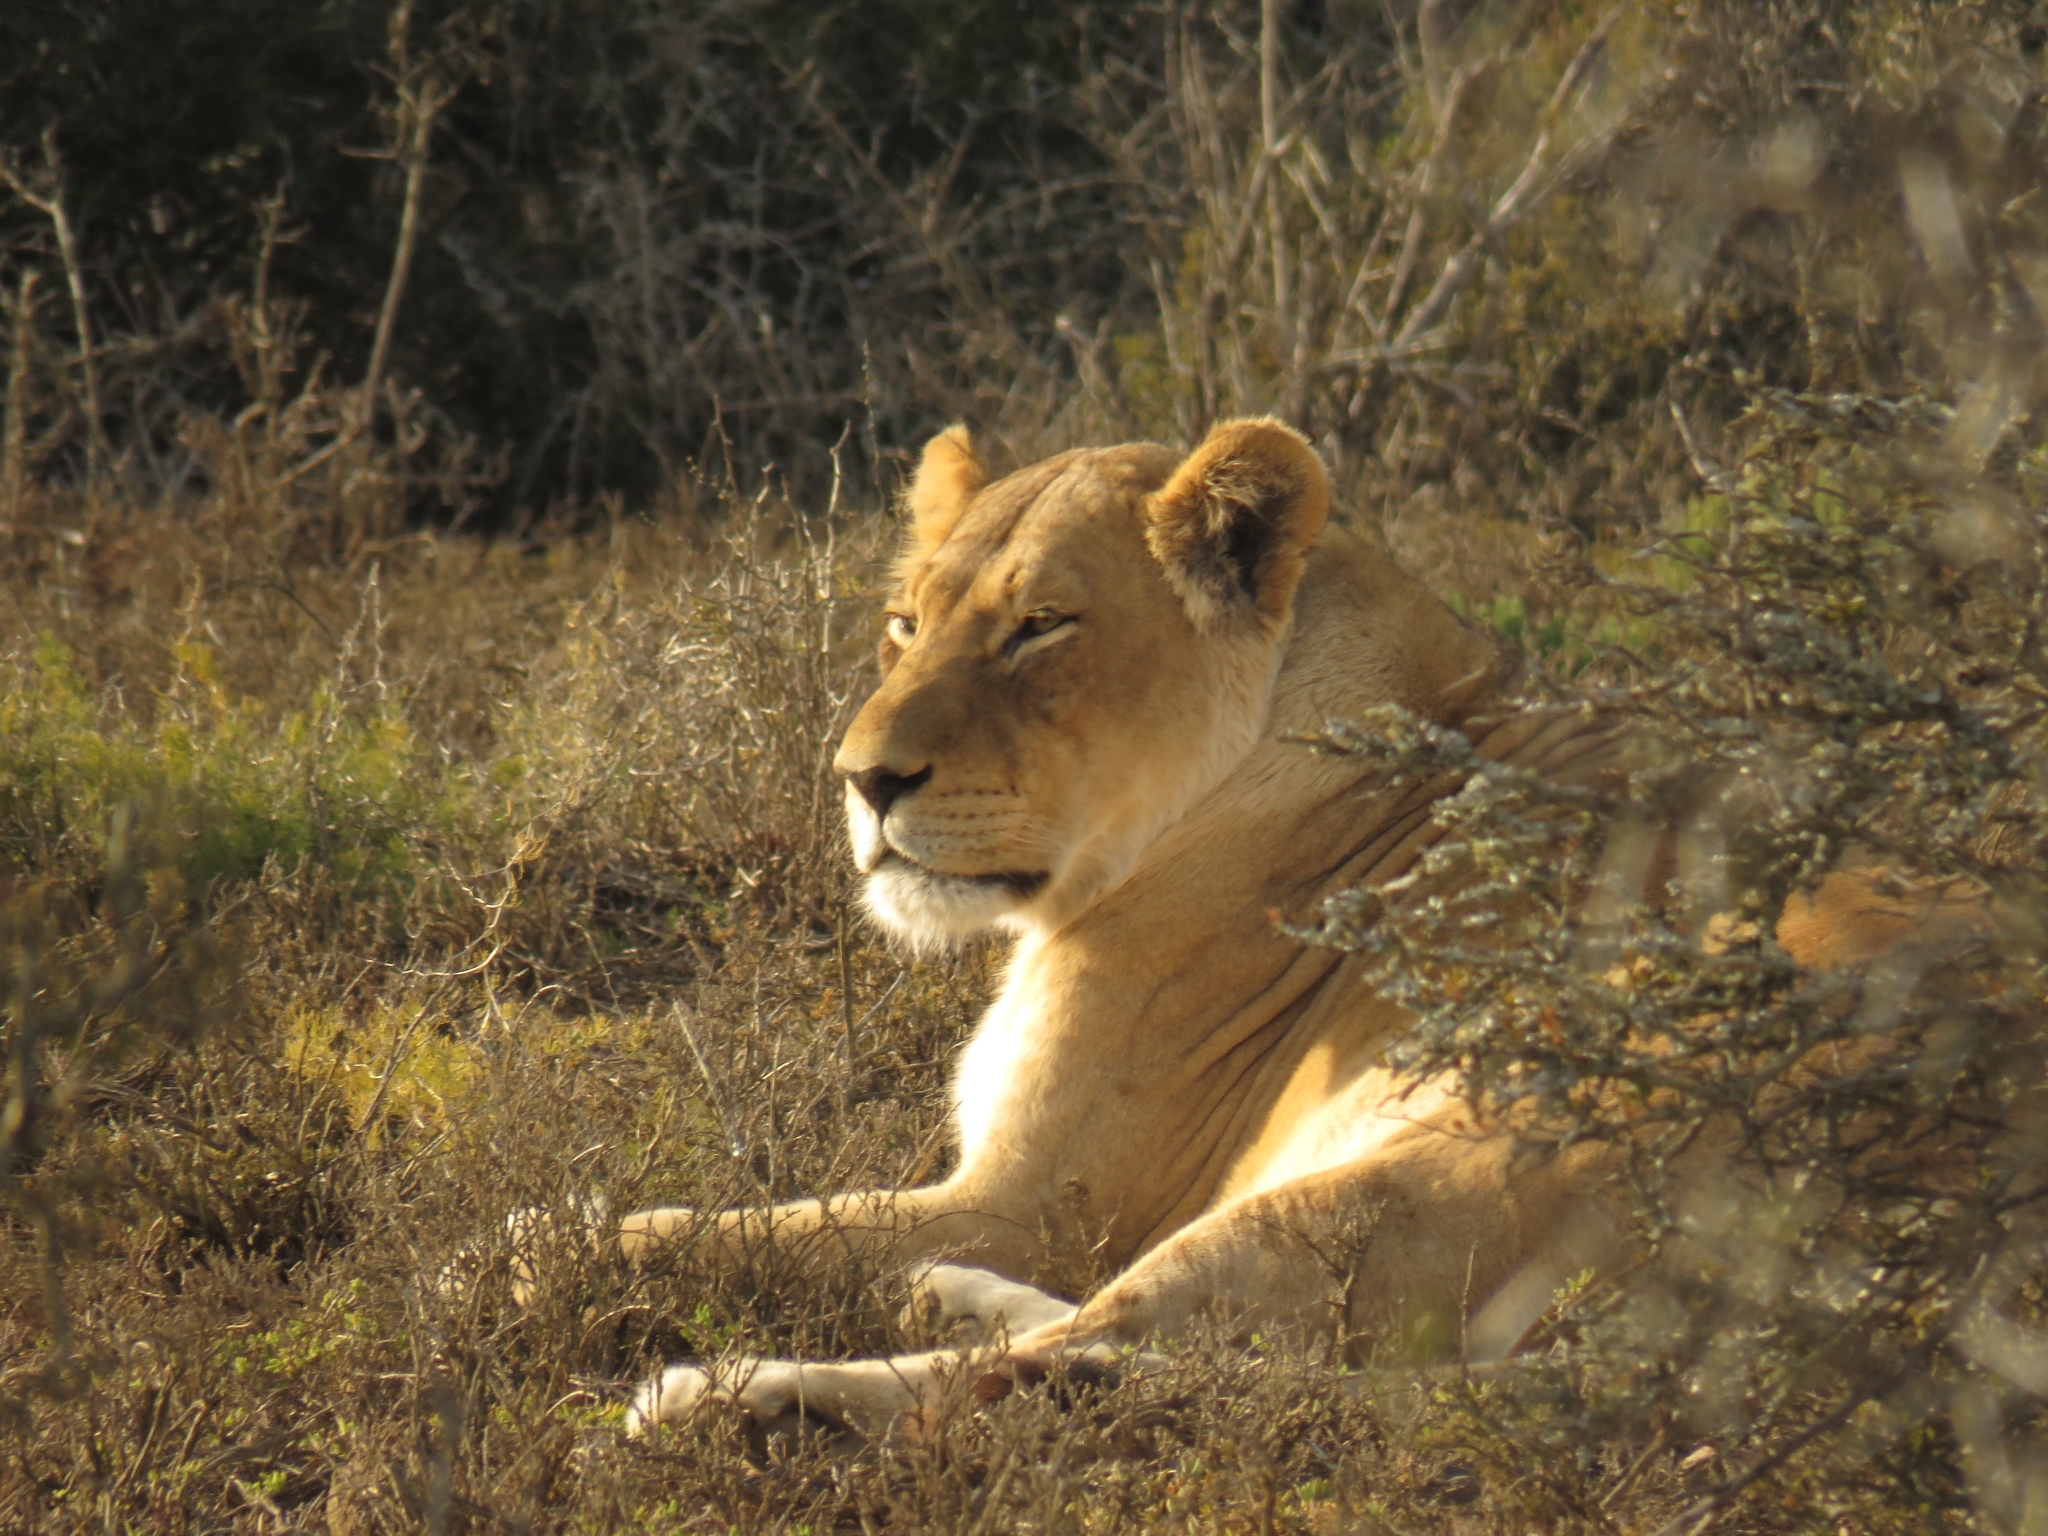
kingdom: Animalia
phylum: Chordata
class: Mammalia
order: Carnivora
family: Felidae
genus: Panthera
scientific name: Panthera leo
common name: Lion
